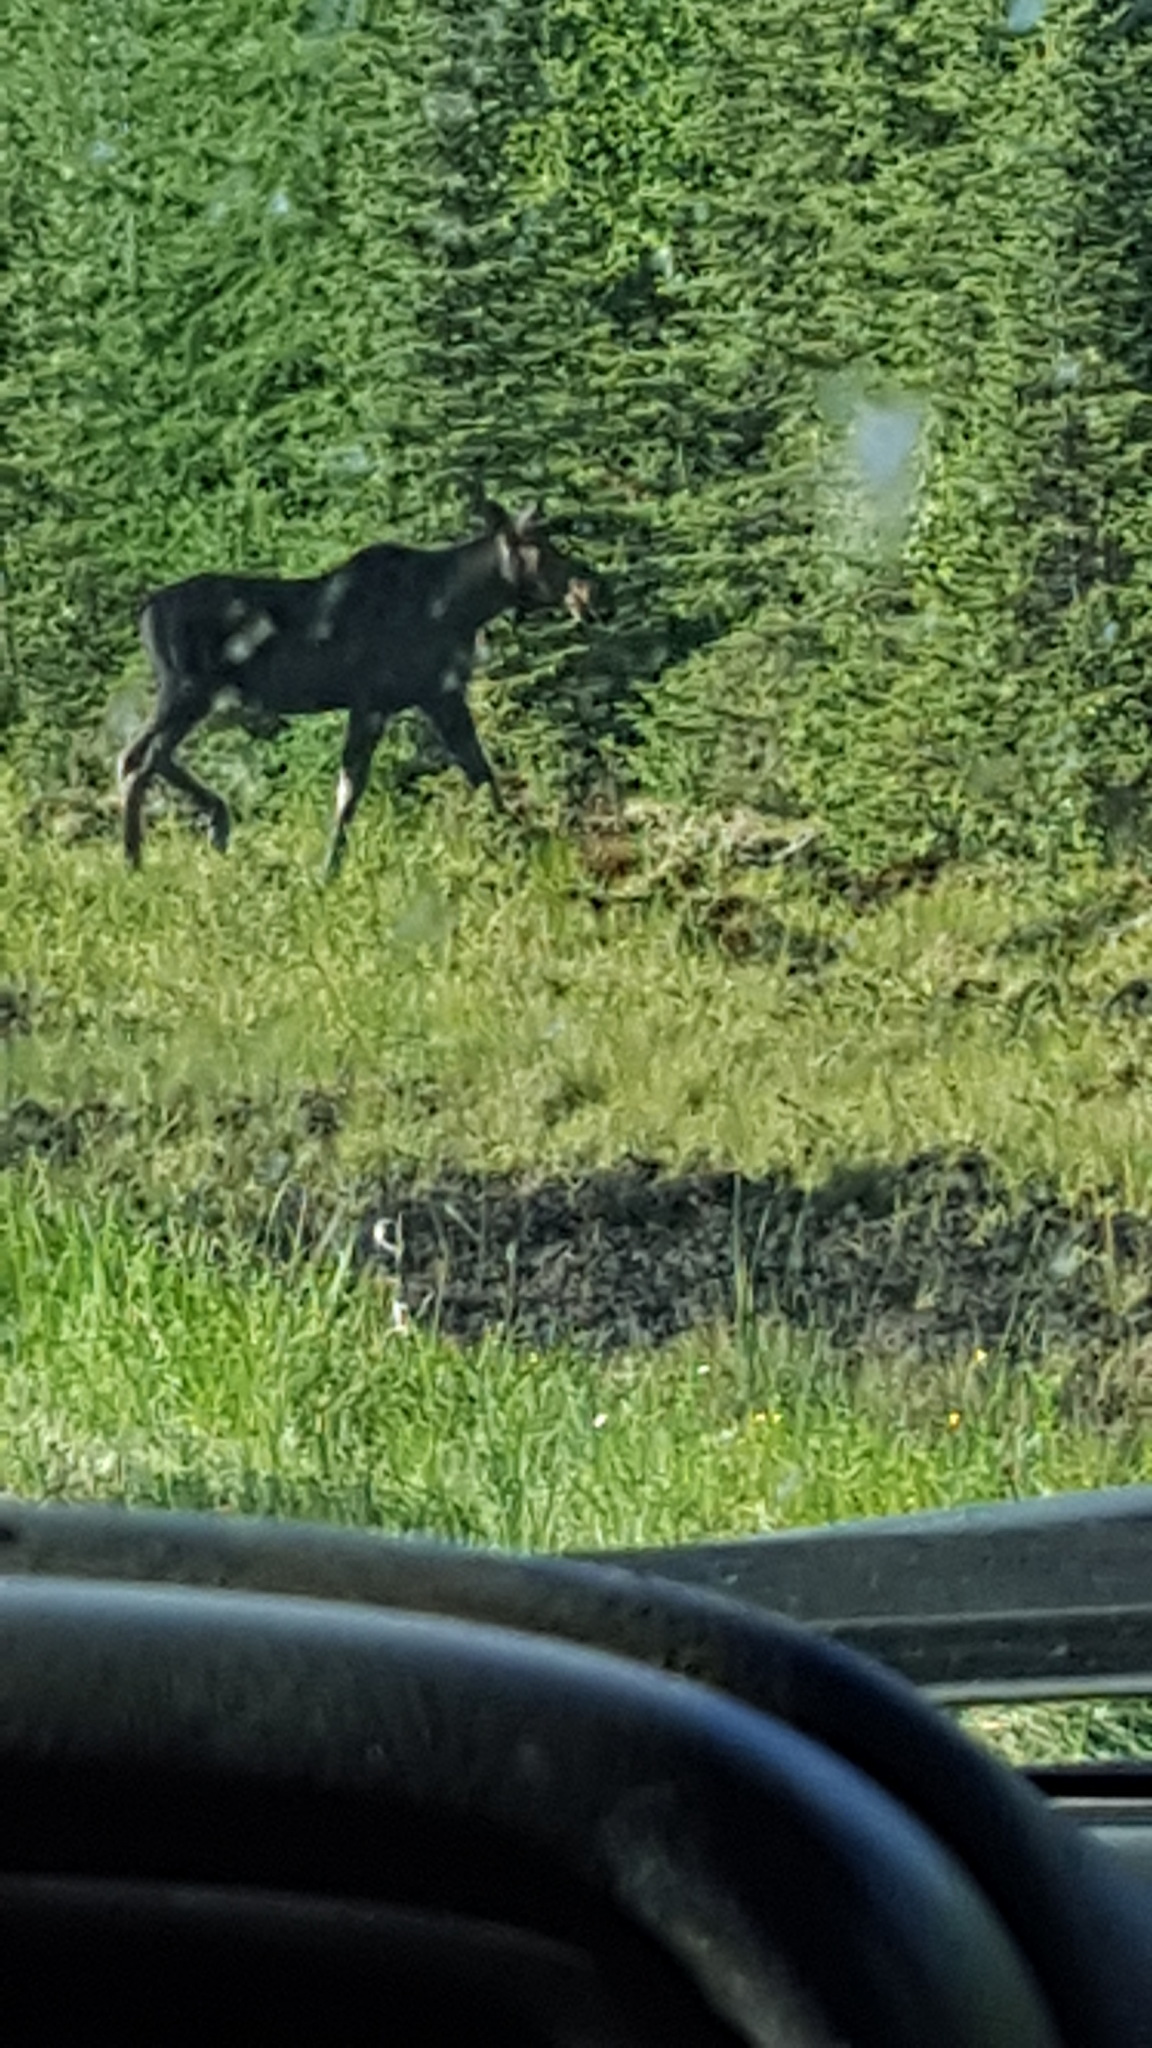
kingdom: Animalia
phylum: Chordata
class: Mammalia
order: Artiodactyla
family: Cervidae
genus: Alces
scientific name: Alces alces
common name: Moose
